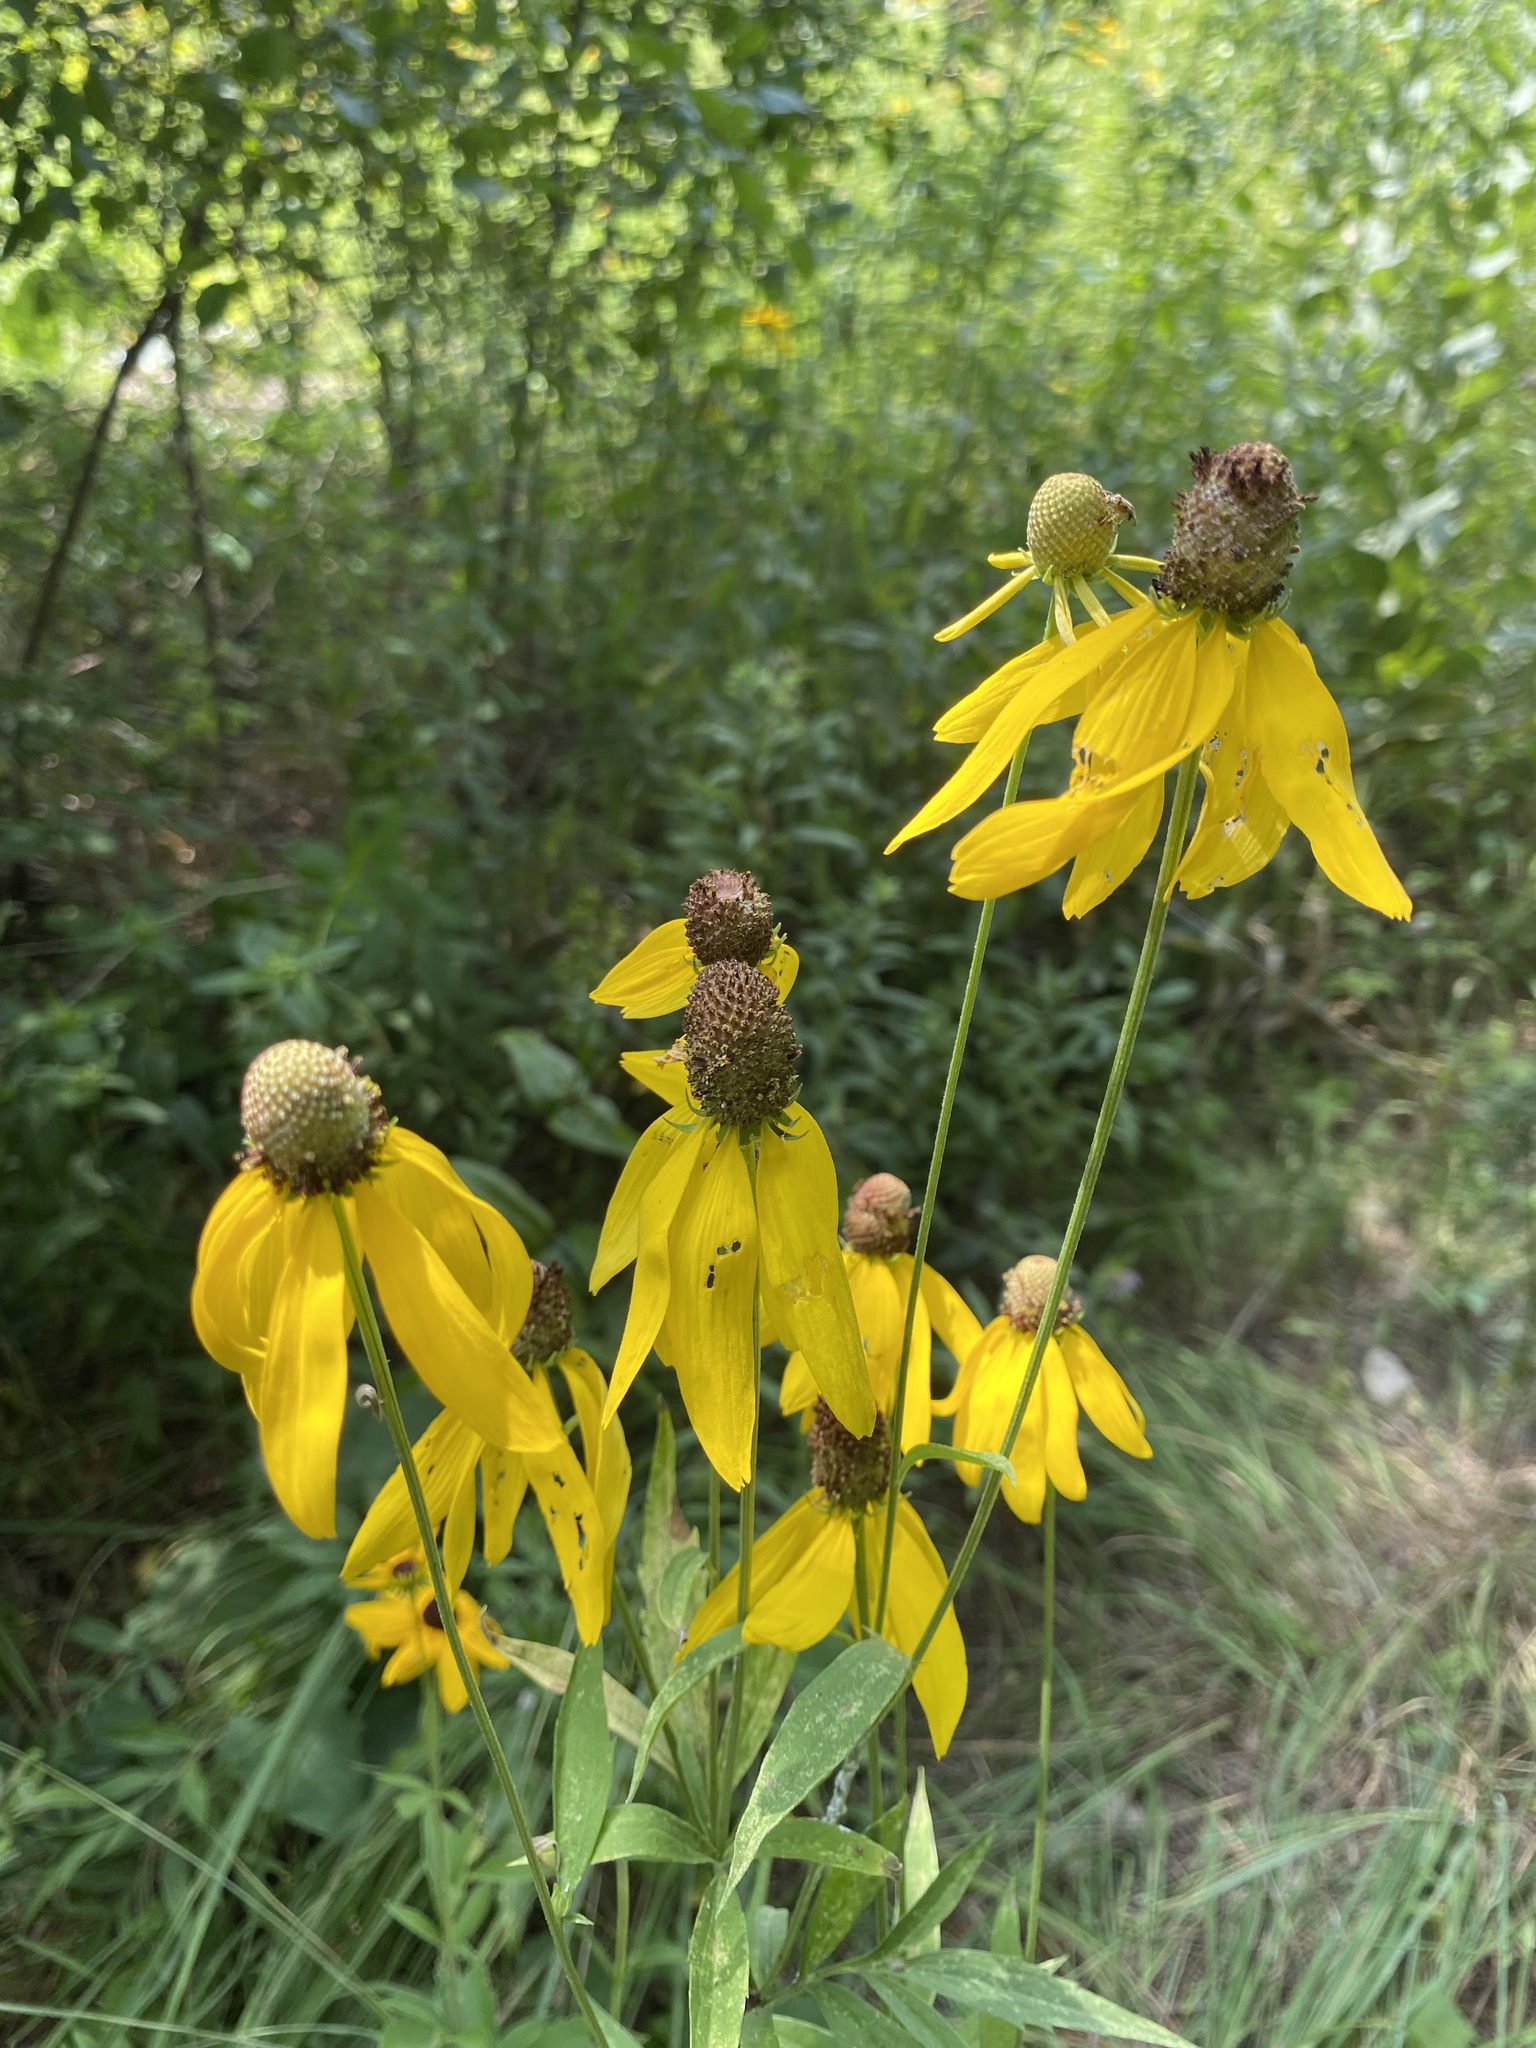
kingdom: Plantae
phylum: Tracheophyta
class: Magnoliopsida
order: Asterales
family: Asteraceae
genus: Ratibida
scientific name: Ratibida pinnata
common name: Drooping prairie-coneflower
